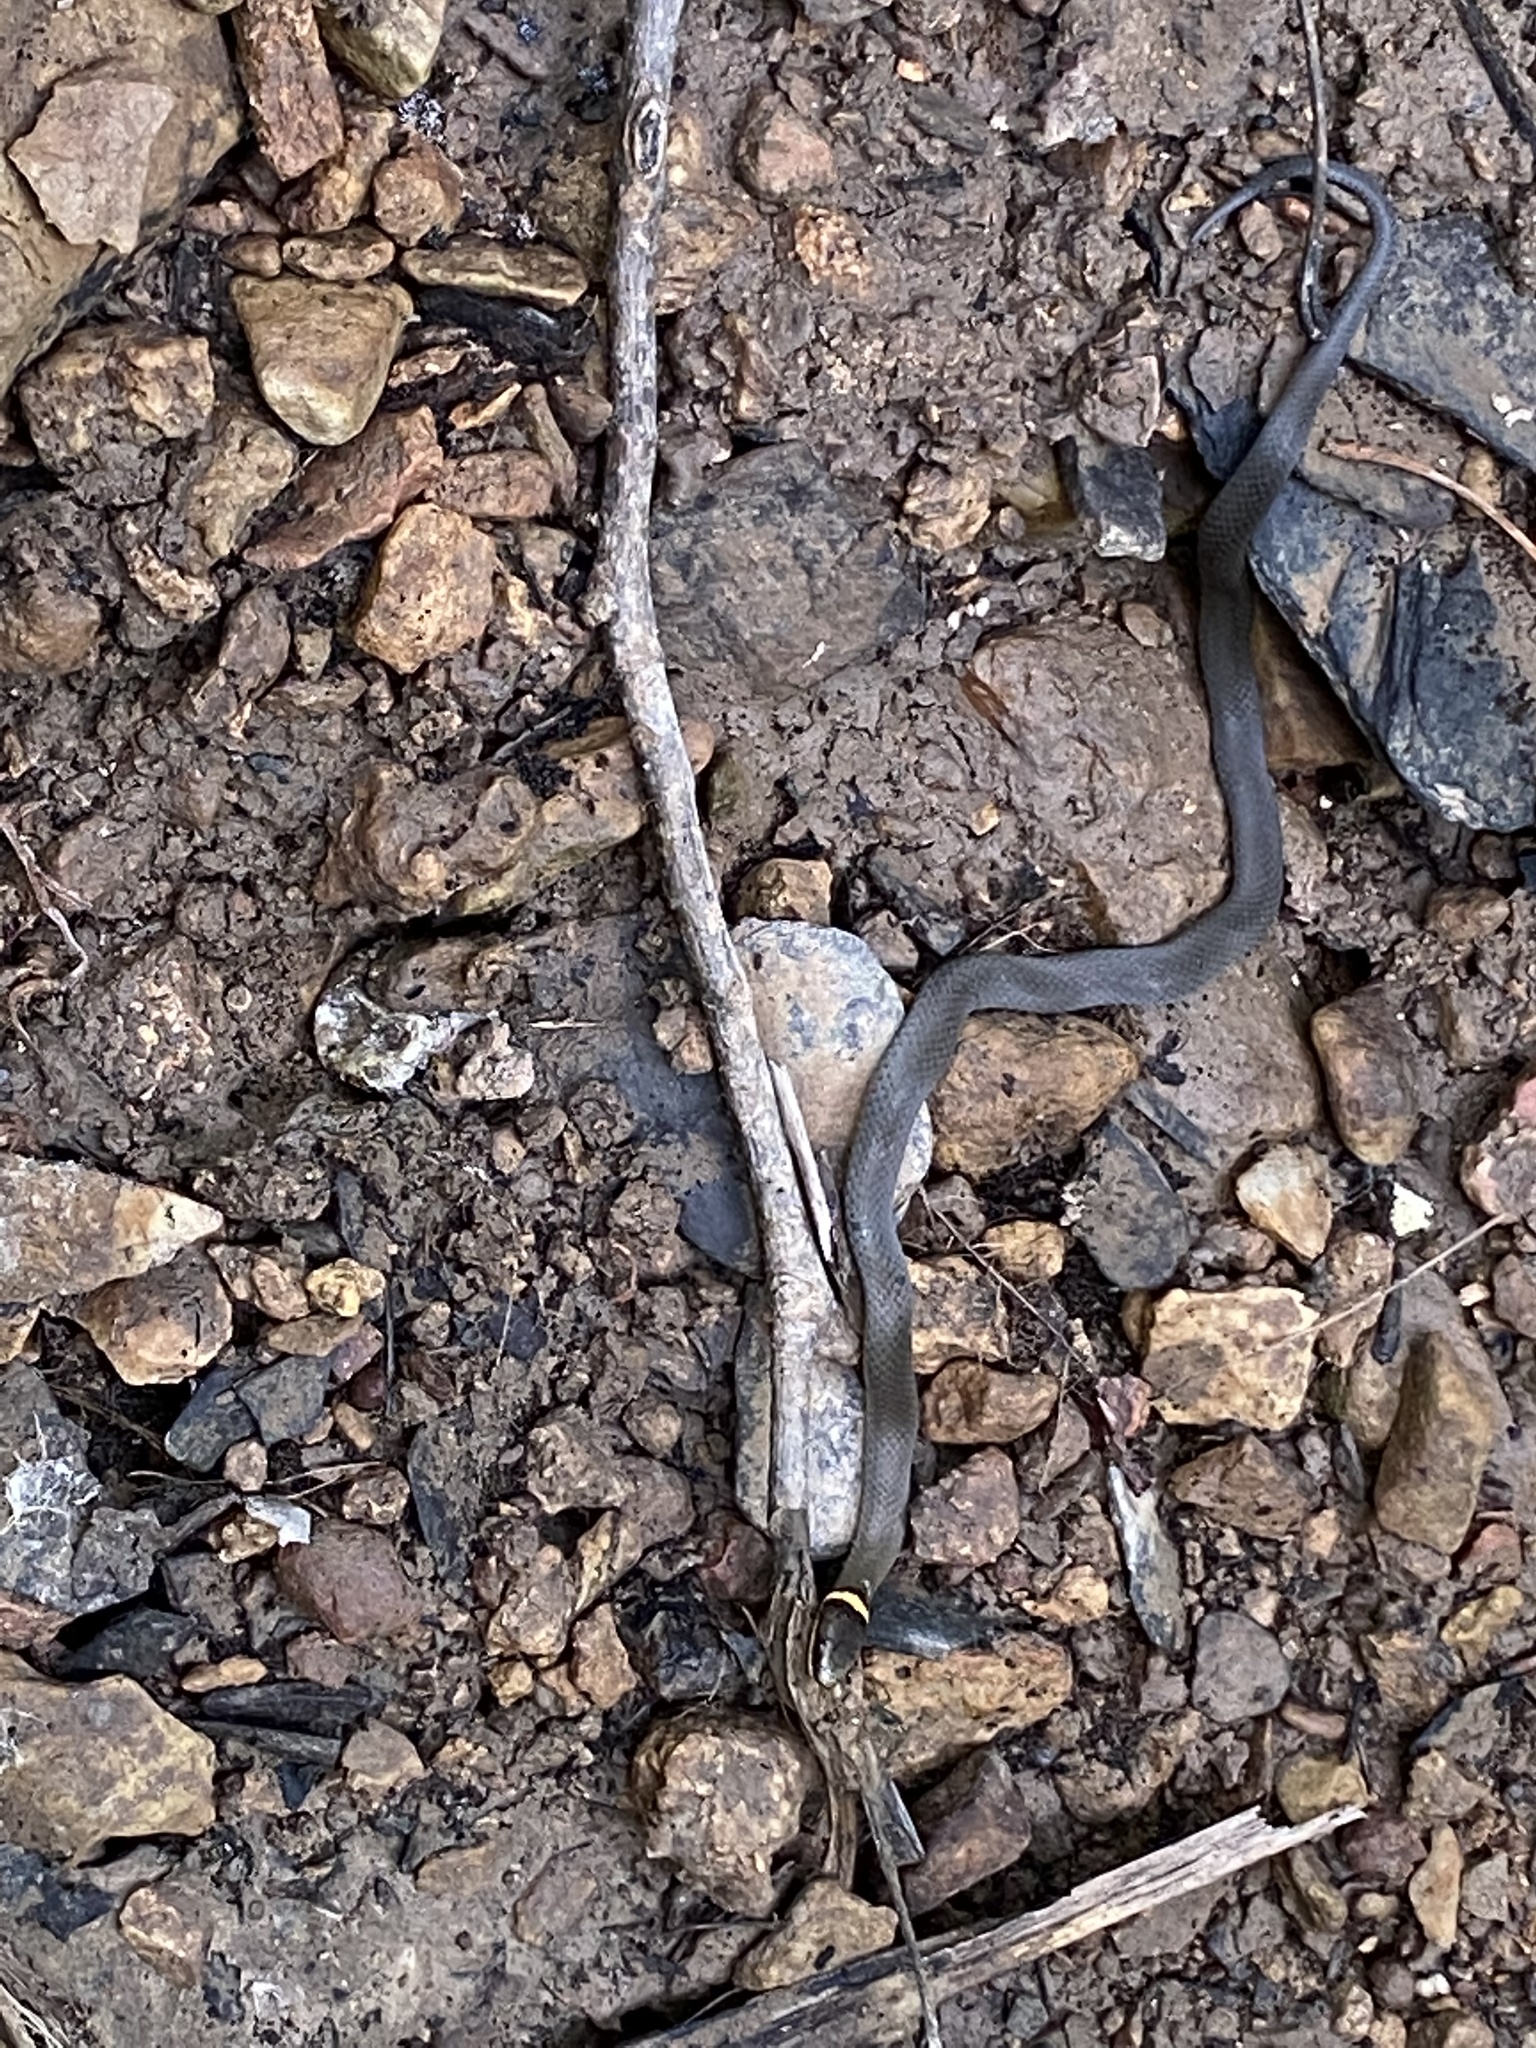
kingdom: Animalia
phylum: Chordata
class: Squamata
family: Colubridae
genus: Diadophis
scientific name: Diadophis punctatus
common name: Ringneck snake
